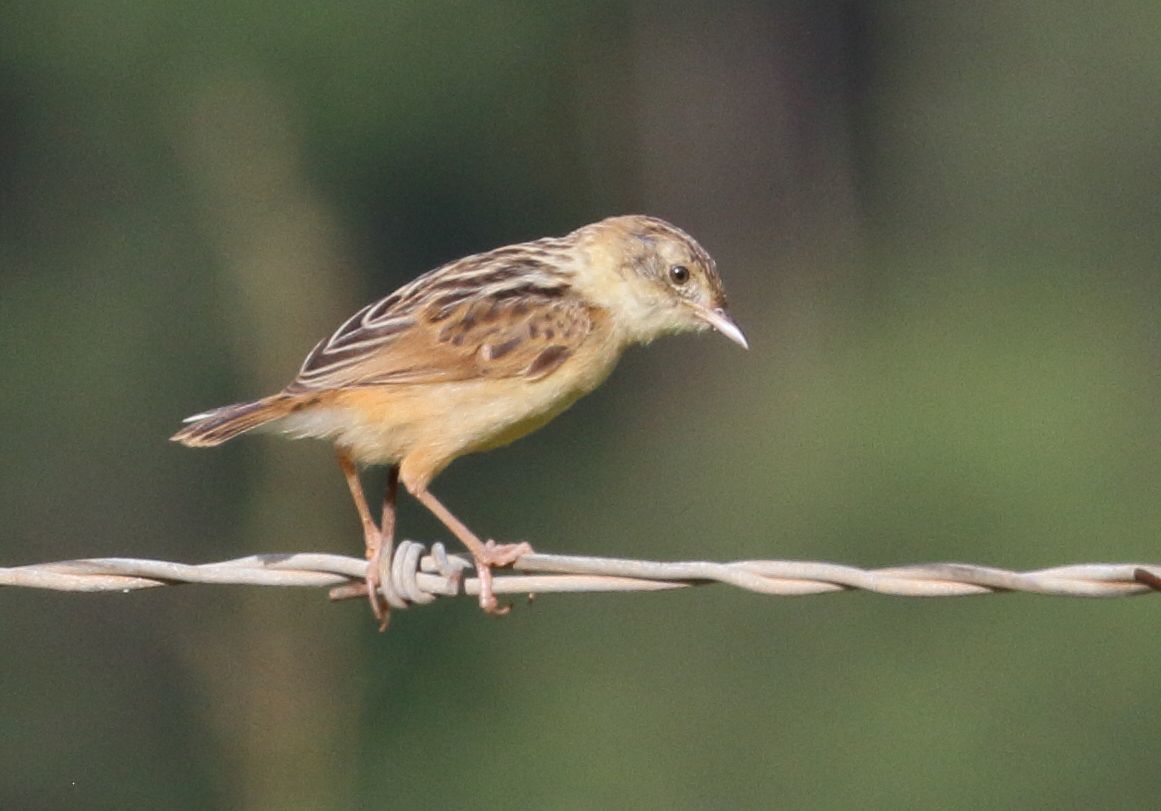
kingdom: Animalia
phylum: Chordata
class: Aves
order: Passeriformes
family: Cisticolidae
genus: Cisticola
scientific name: Cisticola juncidis
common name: Zitting cisticola
